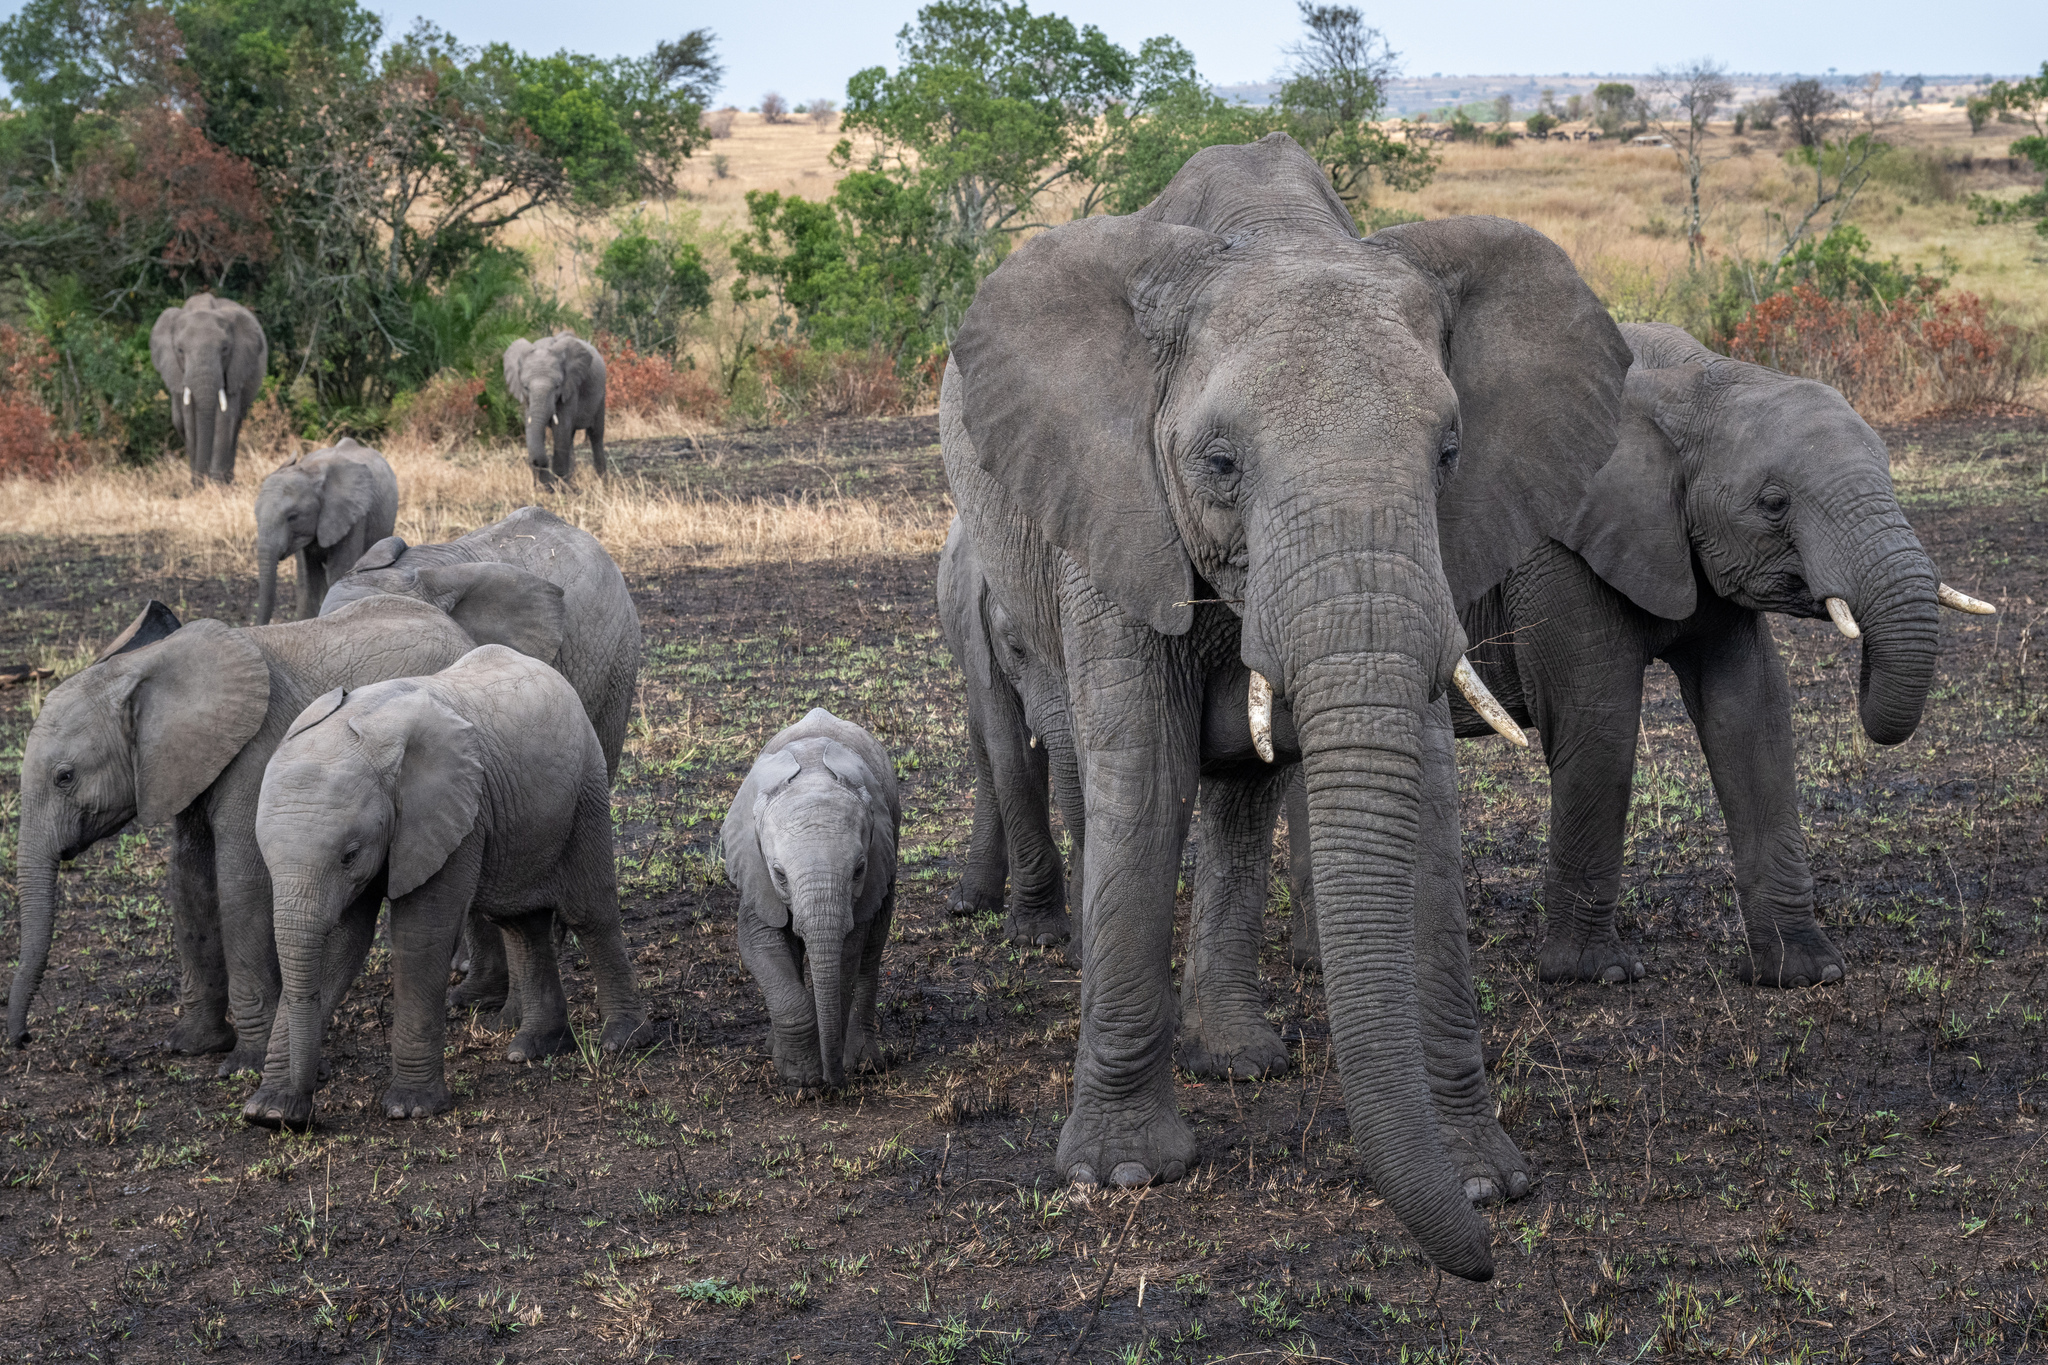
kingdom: Animalia
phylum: Chordata
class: Mammalia
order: Proboscidea
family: Elephantidae
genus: Loxodonta
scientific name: Loxodonta africana
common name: African elephant
